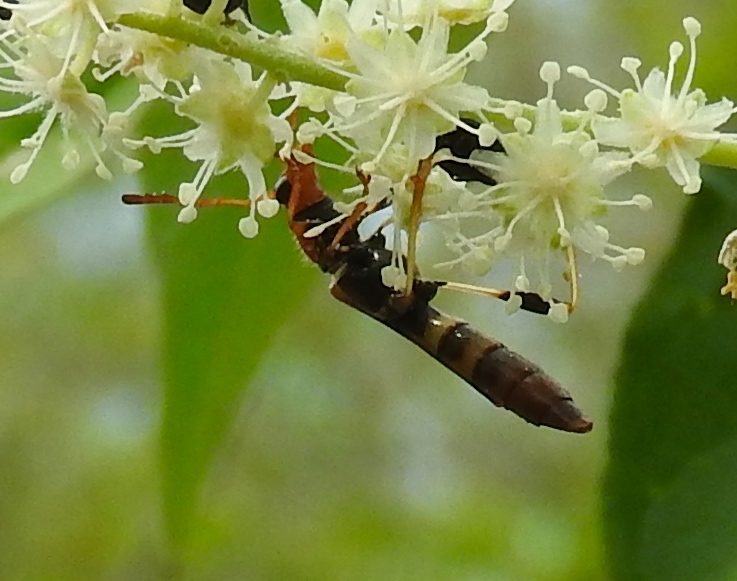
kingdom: Animalia
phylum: Arthropoda
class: Insecta
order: Coleoptera
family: Cerambycidae
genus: Odontocera
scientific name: Odontocera aurocincta
